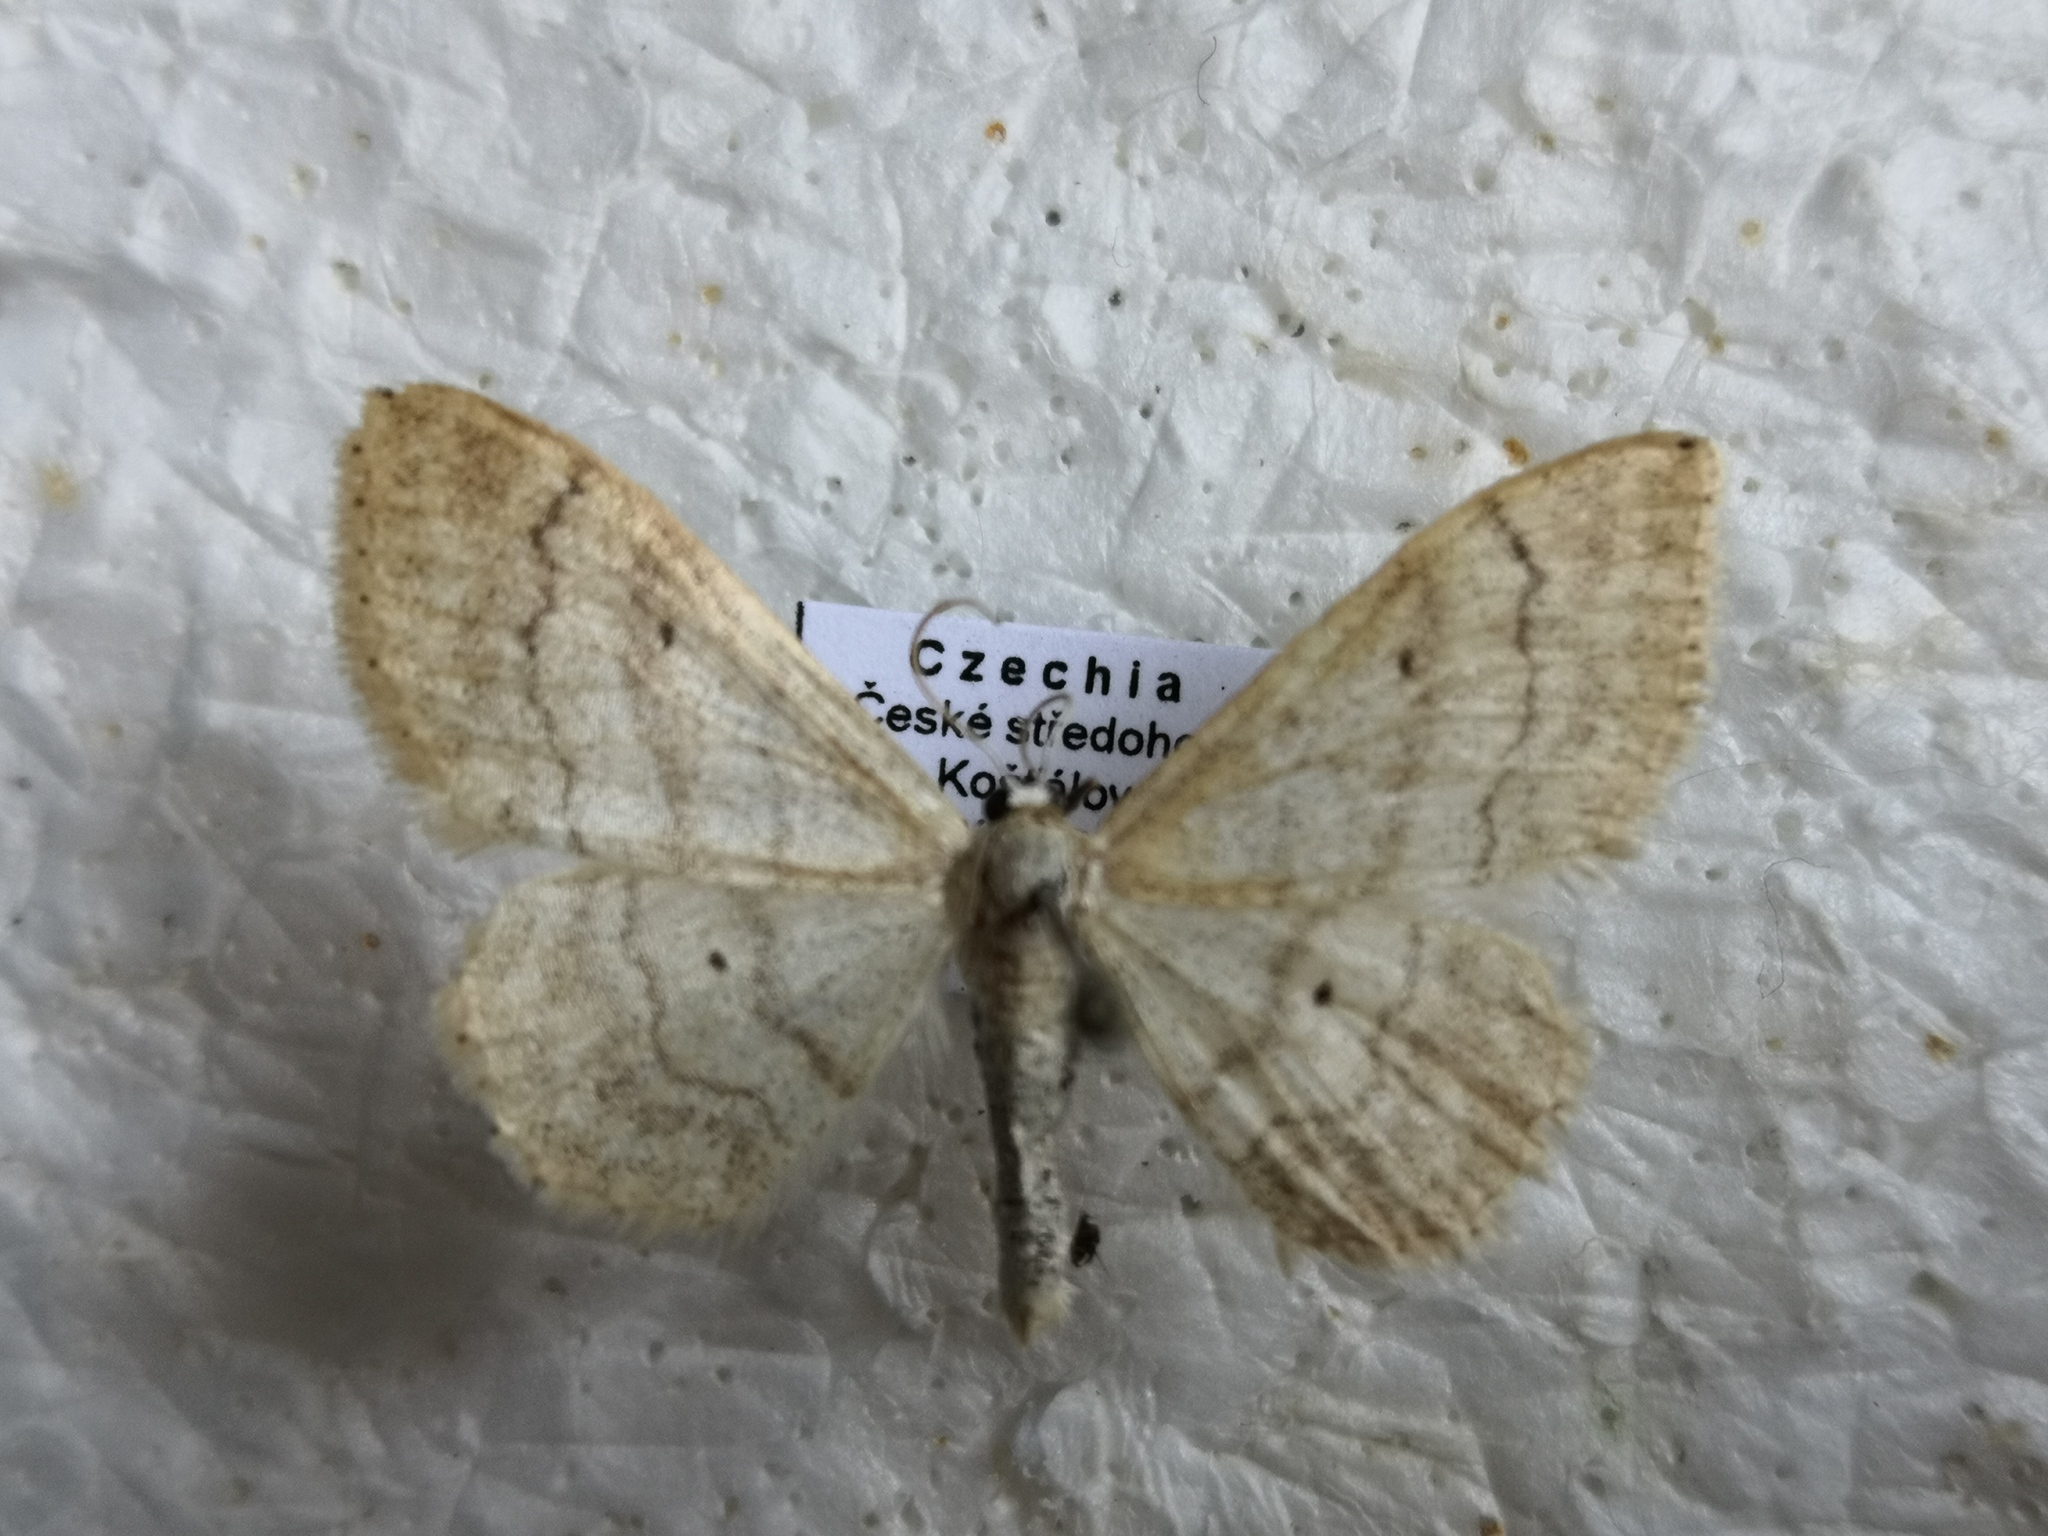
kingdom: Animalia
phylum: Arthropoda
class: Insecta
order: Lepidoptera
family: Geometridae
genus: Idaea
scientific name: Idaea maritimaria
